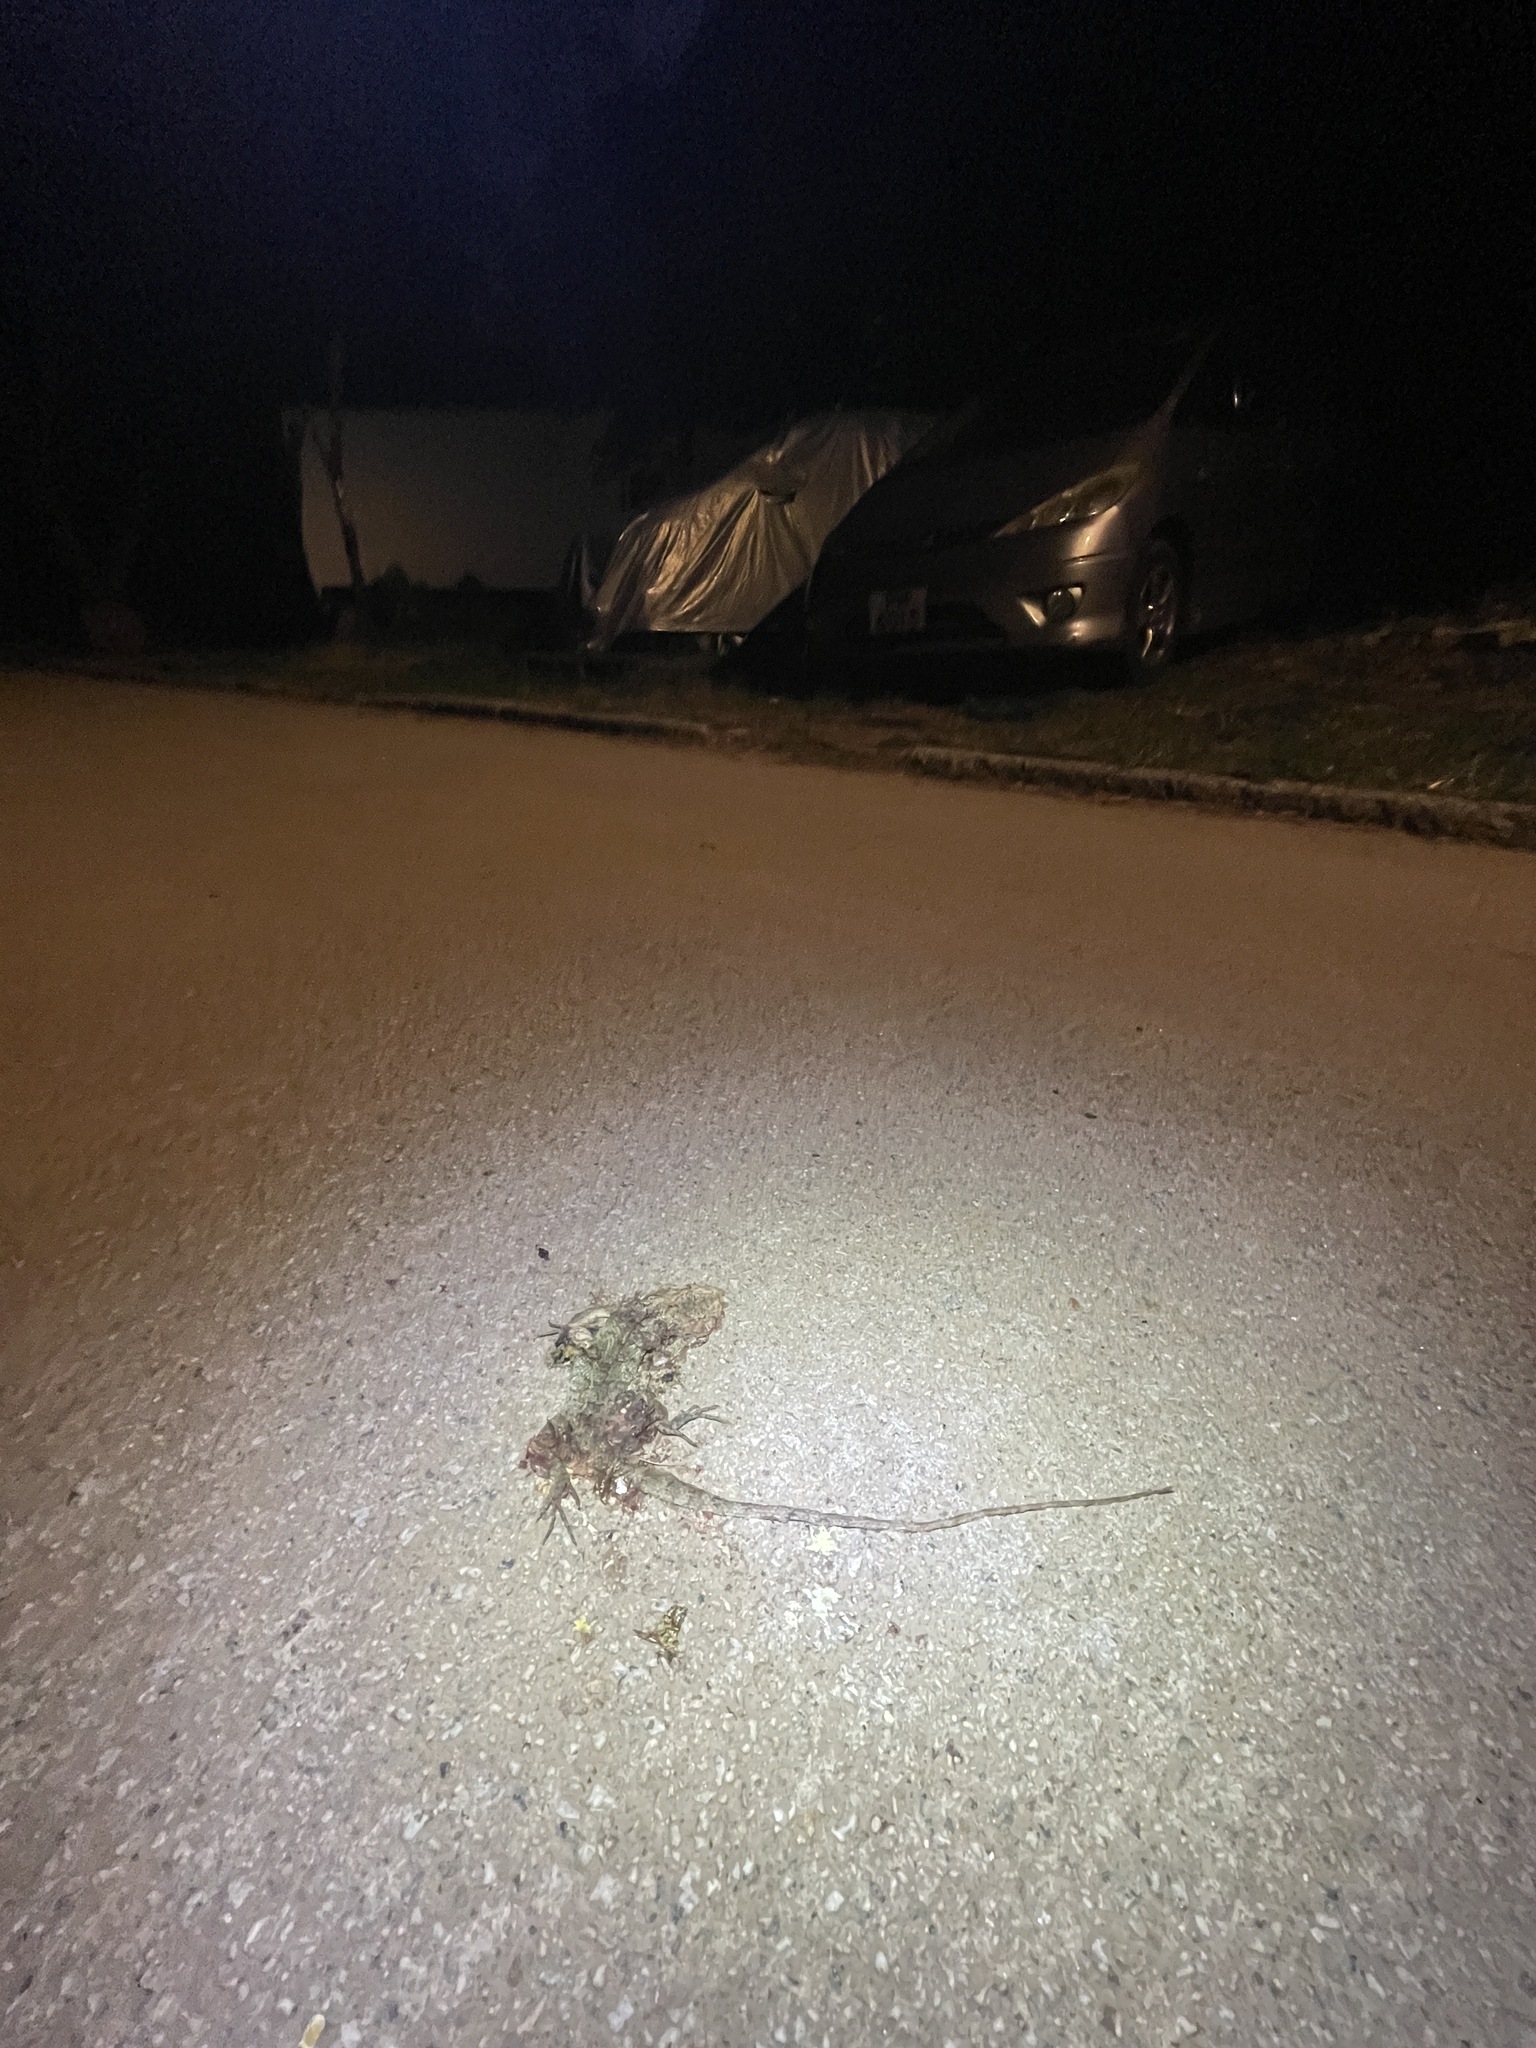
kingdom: Animalia
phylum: Chordata
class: Squamata
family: Agamidae
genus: Calotes
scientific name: Calotes versicolor
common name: Oriental garden lizard
